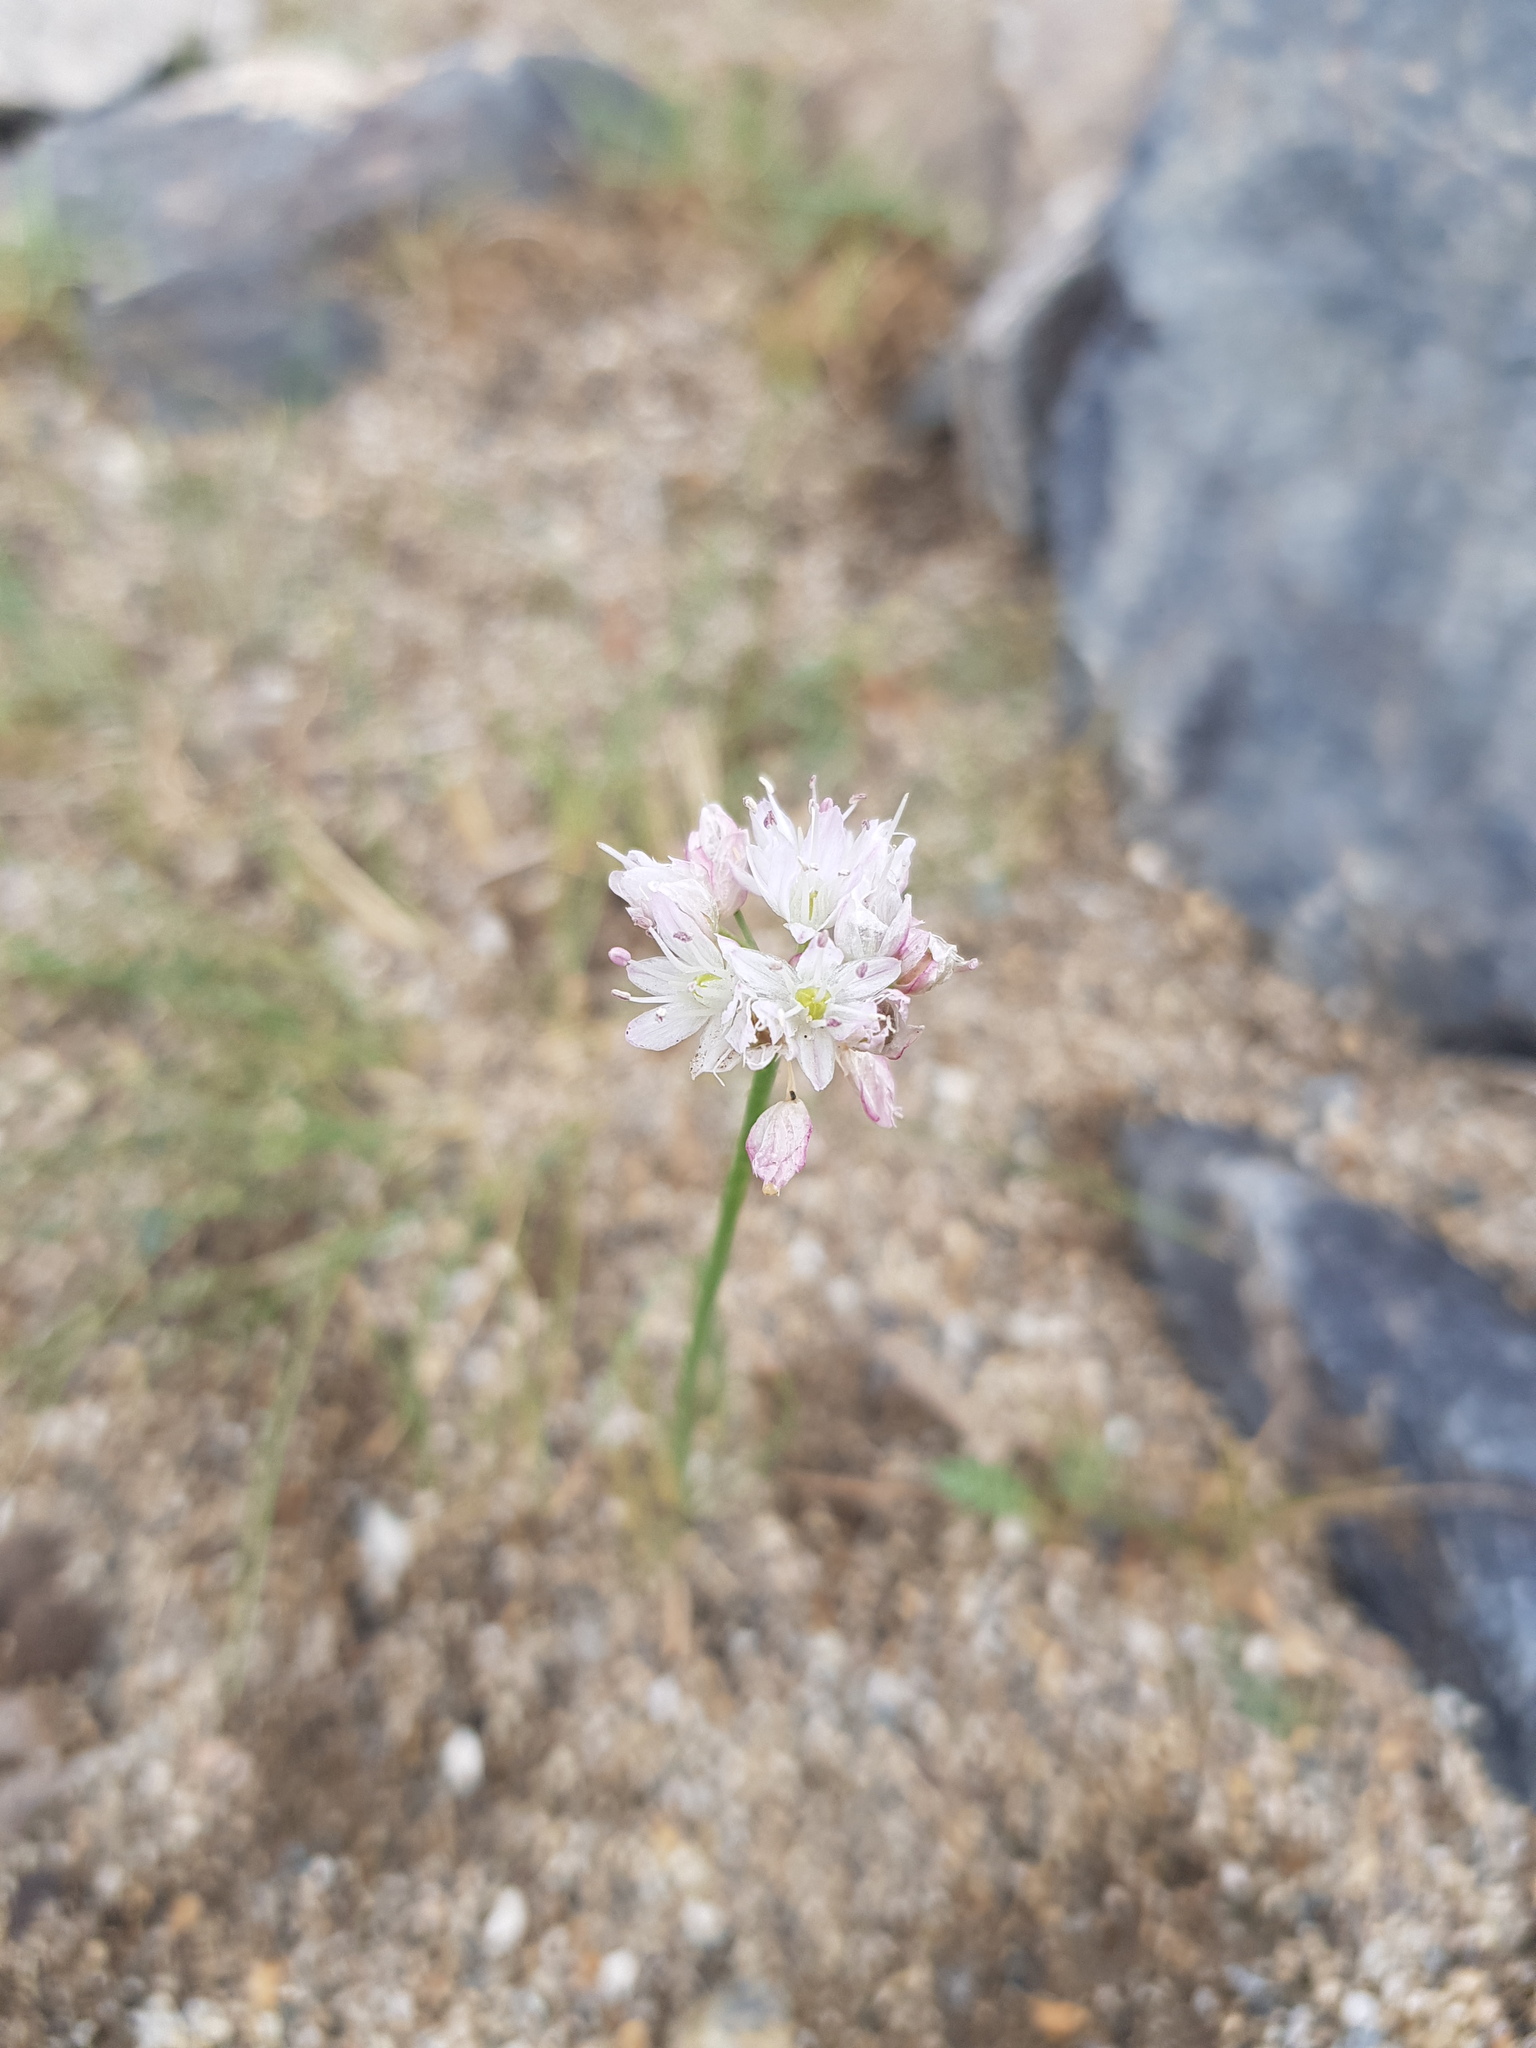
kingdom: Plantae
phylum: Tracheophyta
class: Liliopsida
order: Asparagales
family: Amaryllidaceae
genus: Allium
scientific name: Allium mongolicum
